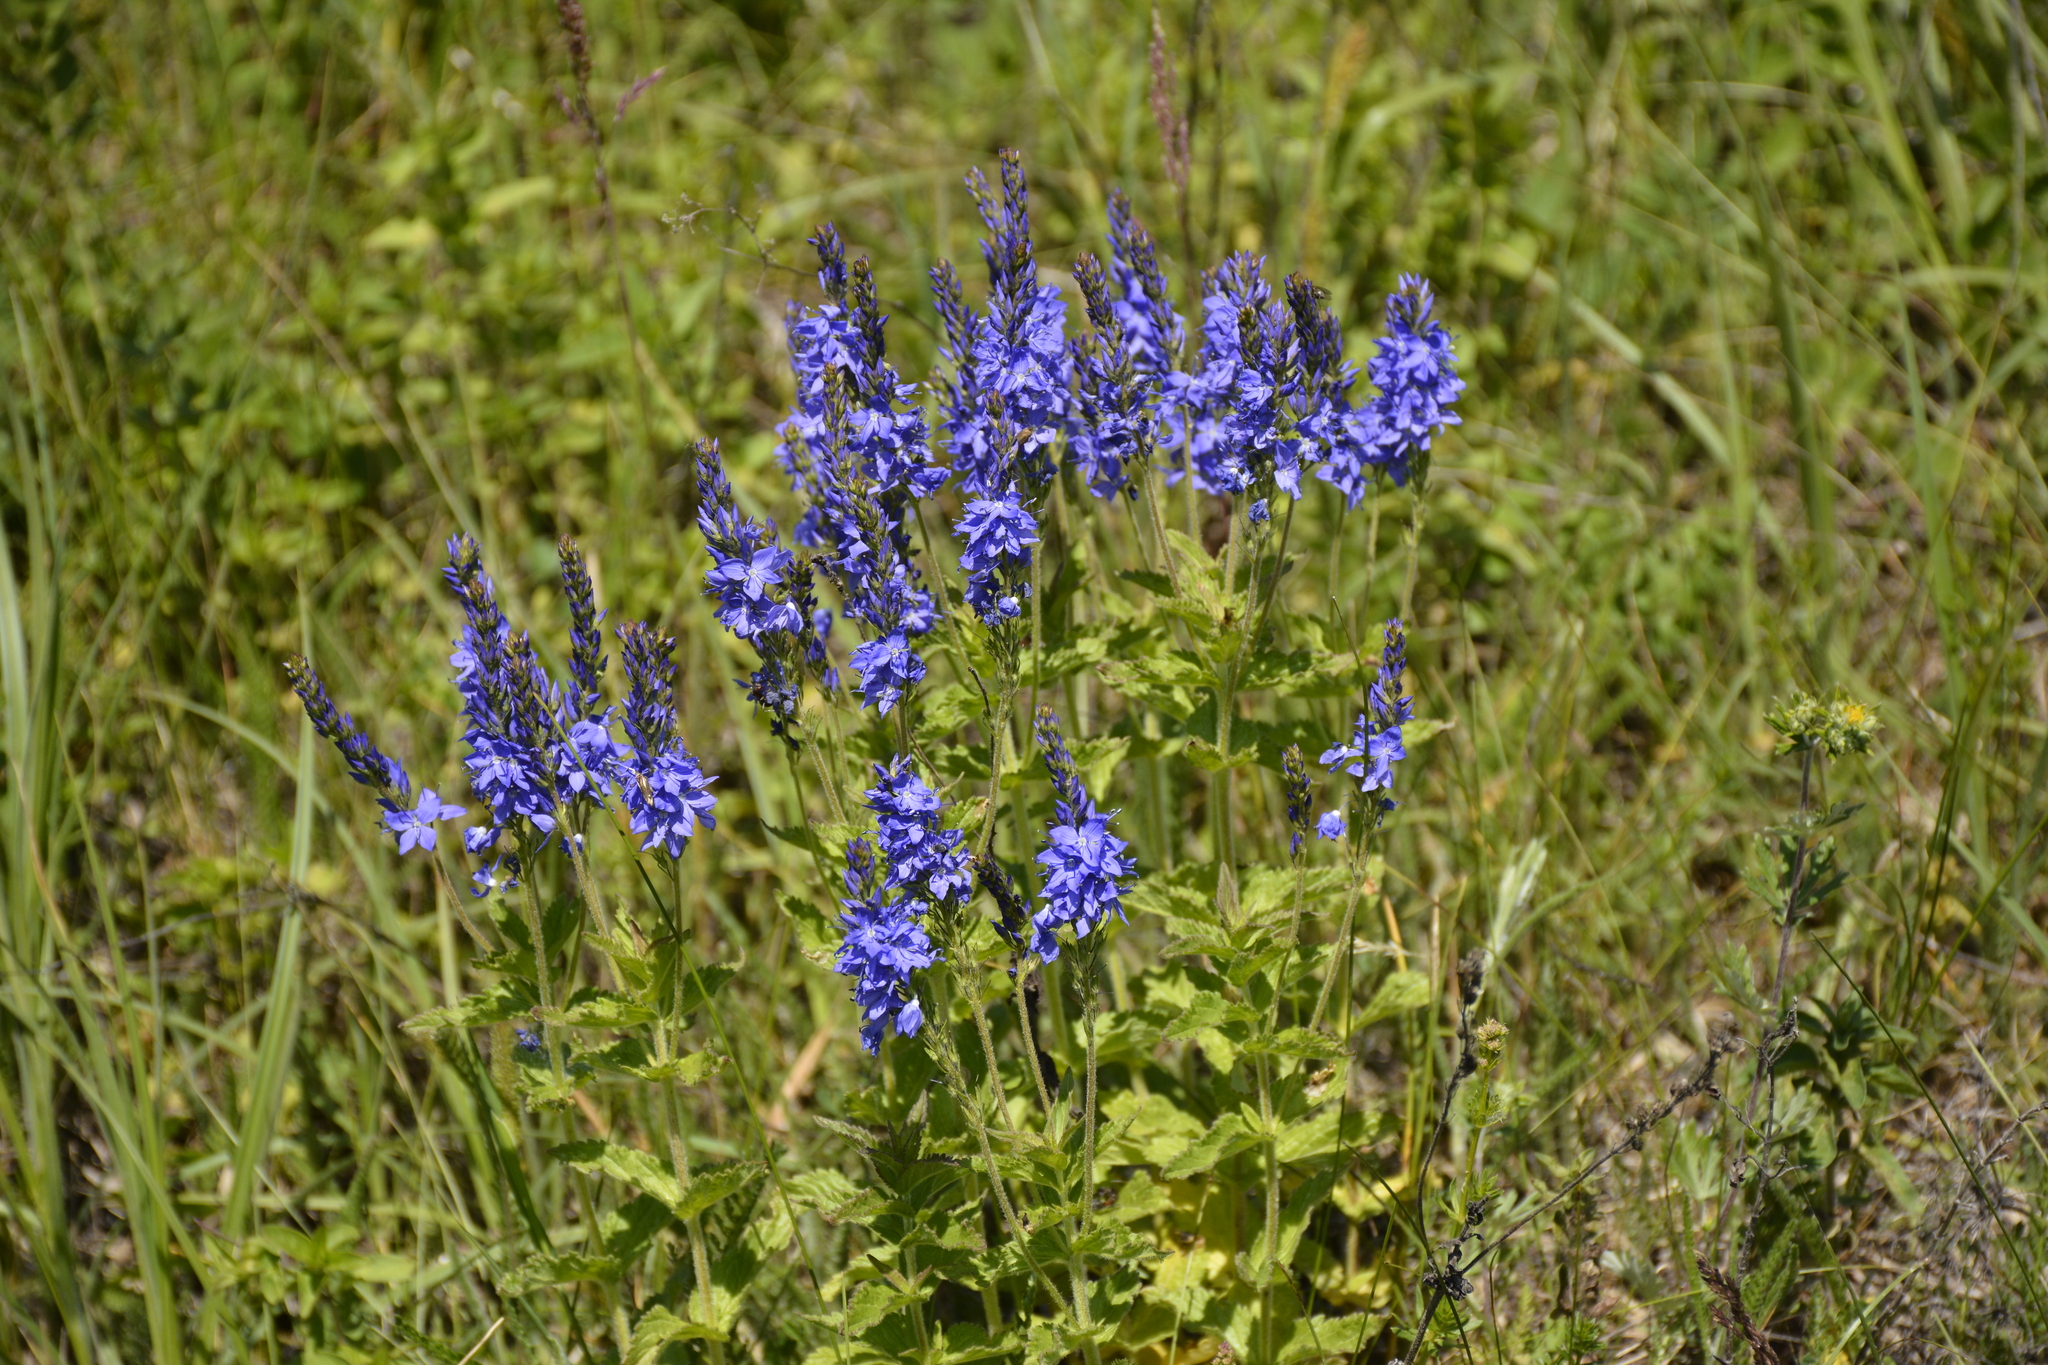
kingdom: Plantae
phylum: Tracheophyta
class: Magnoliopsida
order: Lamiales
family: Plantaginaceae
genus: Veronica
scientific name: Veronica teucrium
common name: Large speedwell
